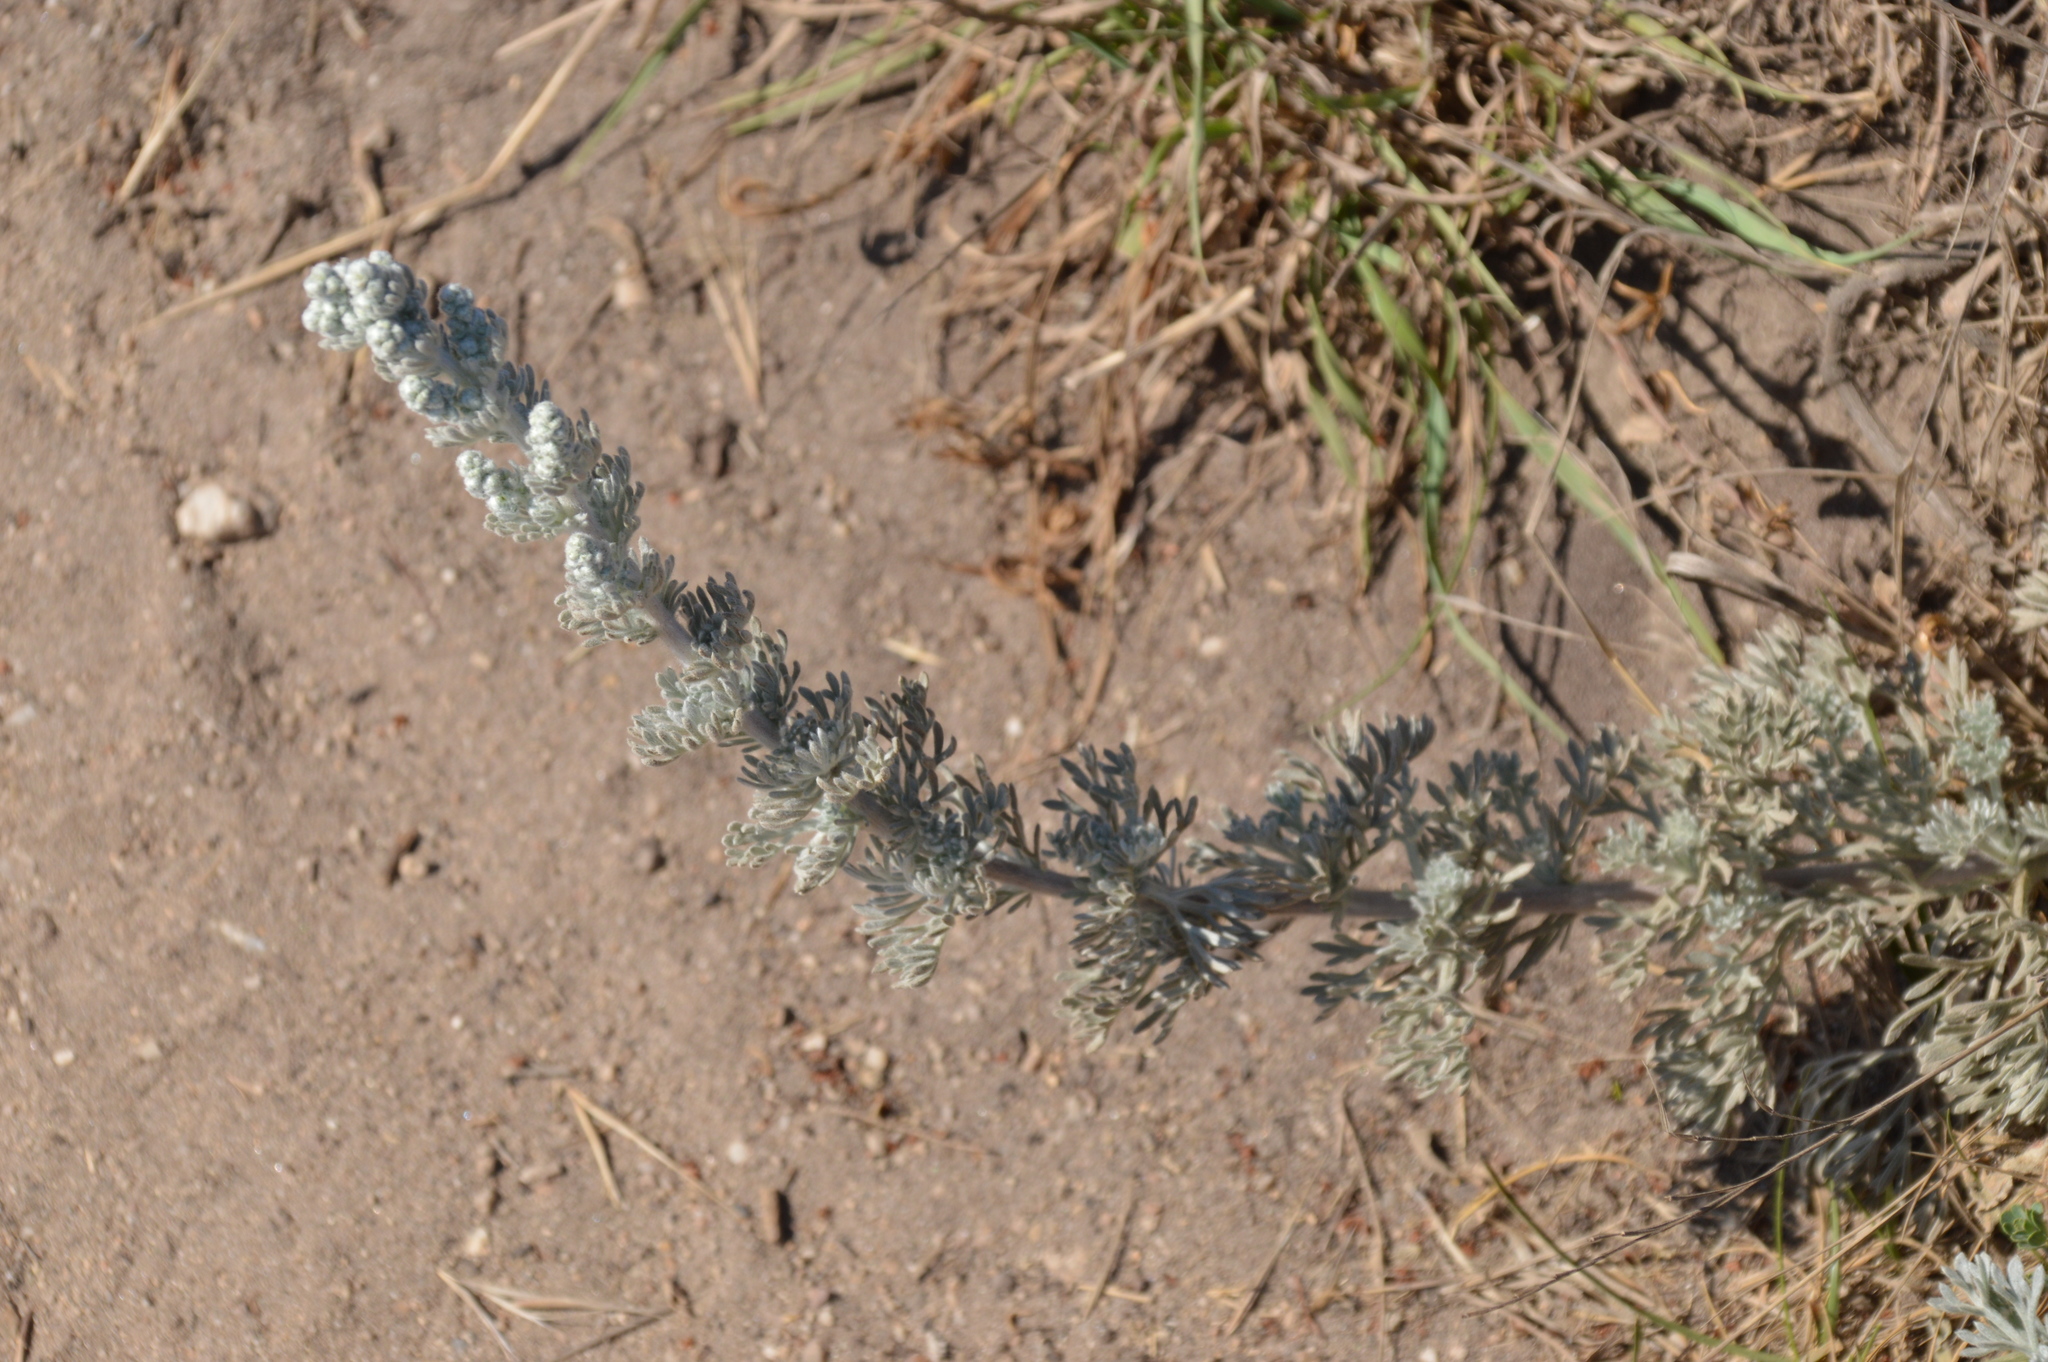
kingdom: Plantae
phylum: Tracheophyta
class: Magnoliopsida
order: Asterales
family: Asteraceae
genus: Artemisia
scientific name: Artemisia pycnocephala
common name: Coastal sagewort
